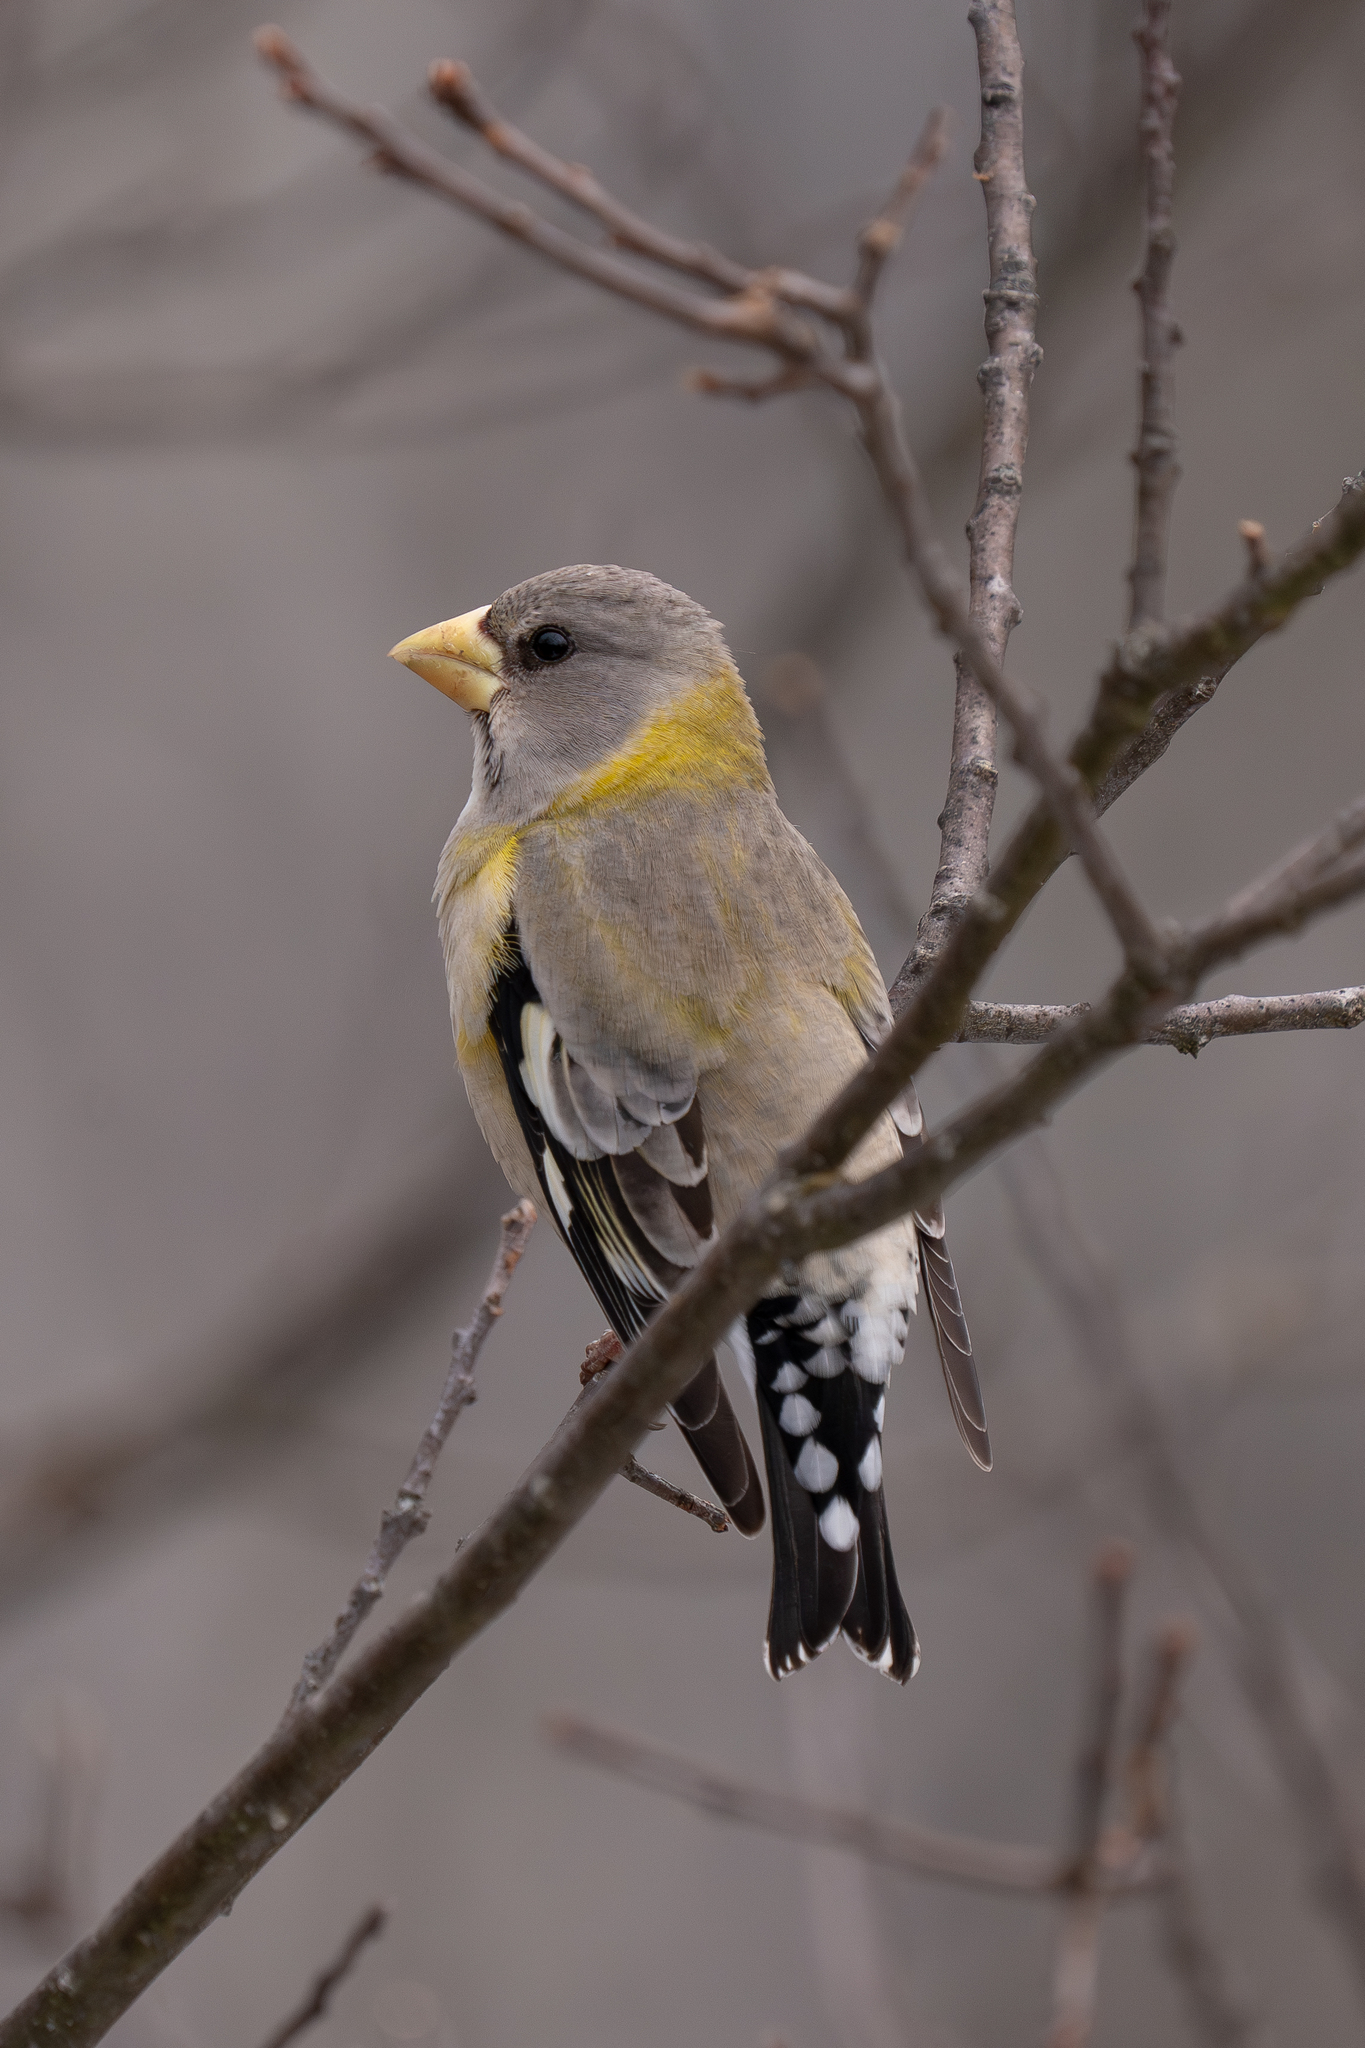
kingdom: Animalia
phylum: Chordata
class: Aves
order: Passeriformes
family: Fringillidae
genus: Hesperiphona
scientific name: Hesperiphona vespertina
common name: Evening grosbeak
